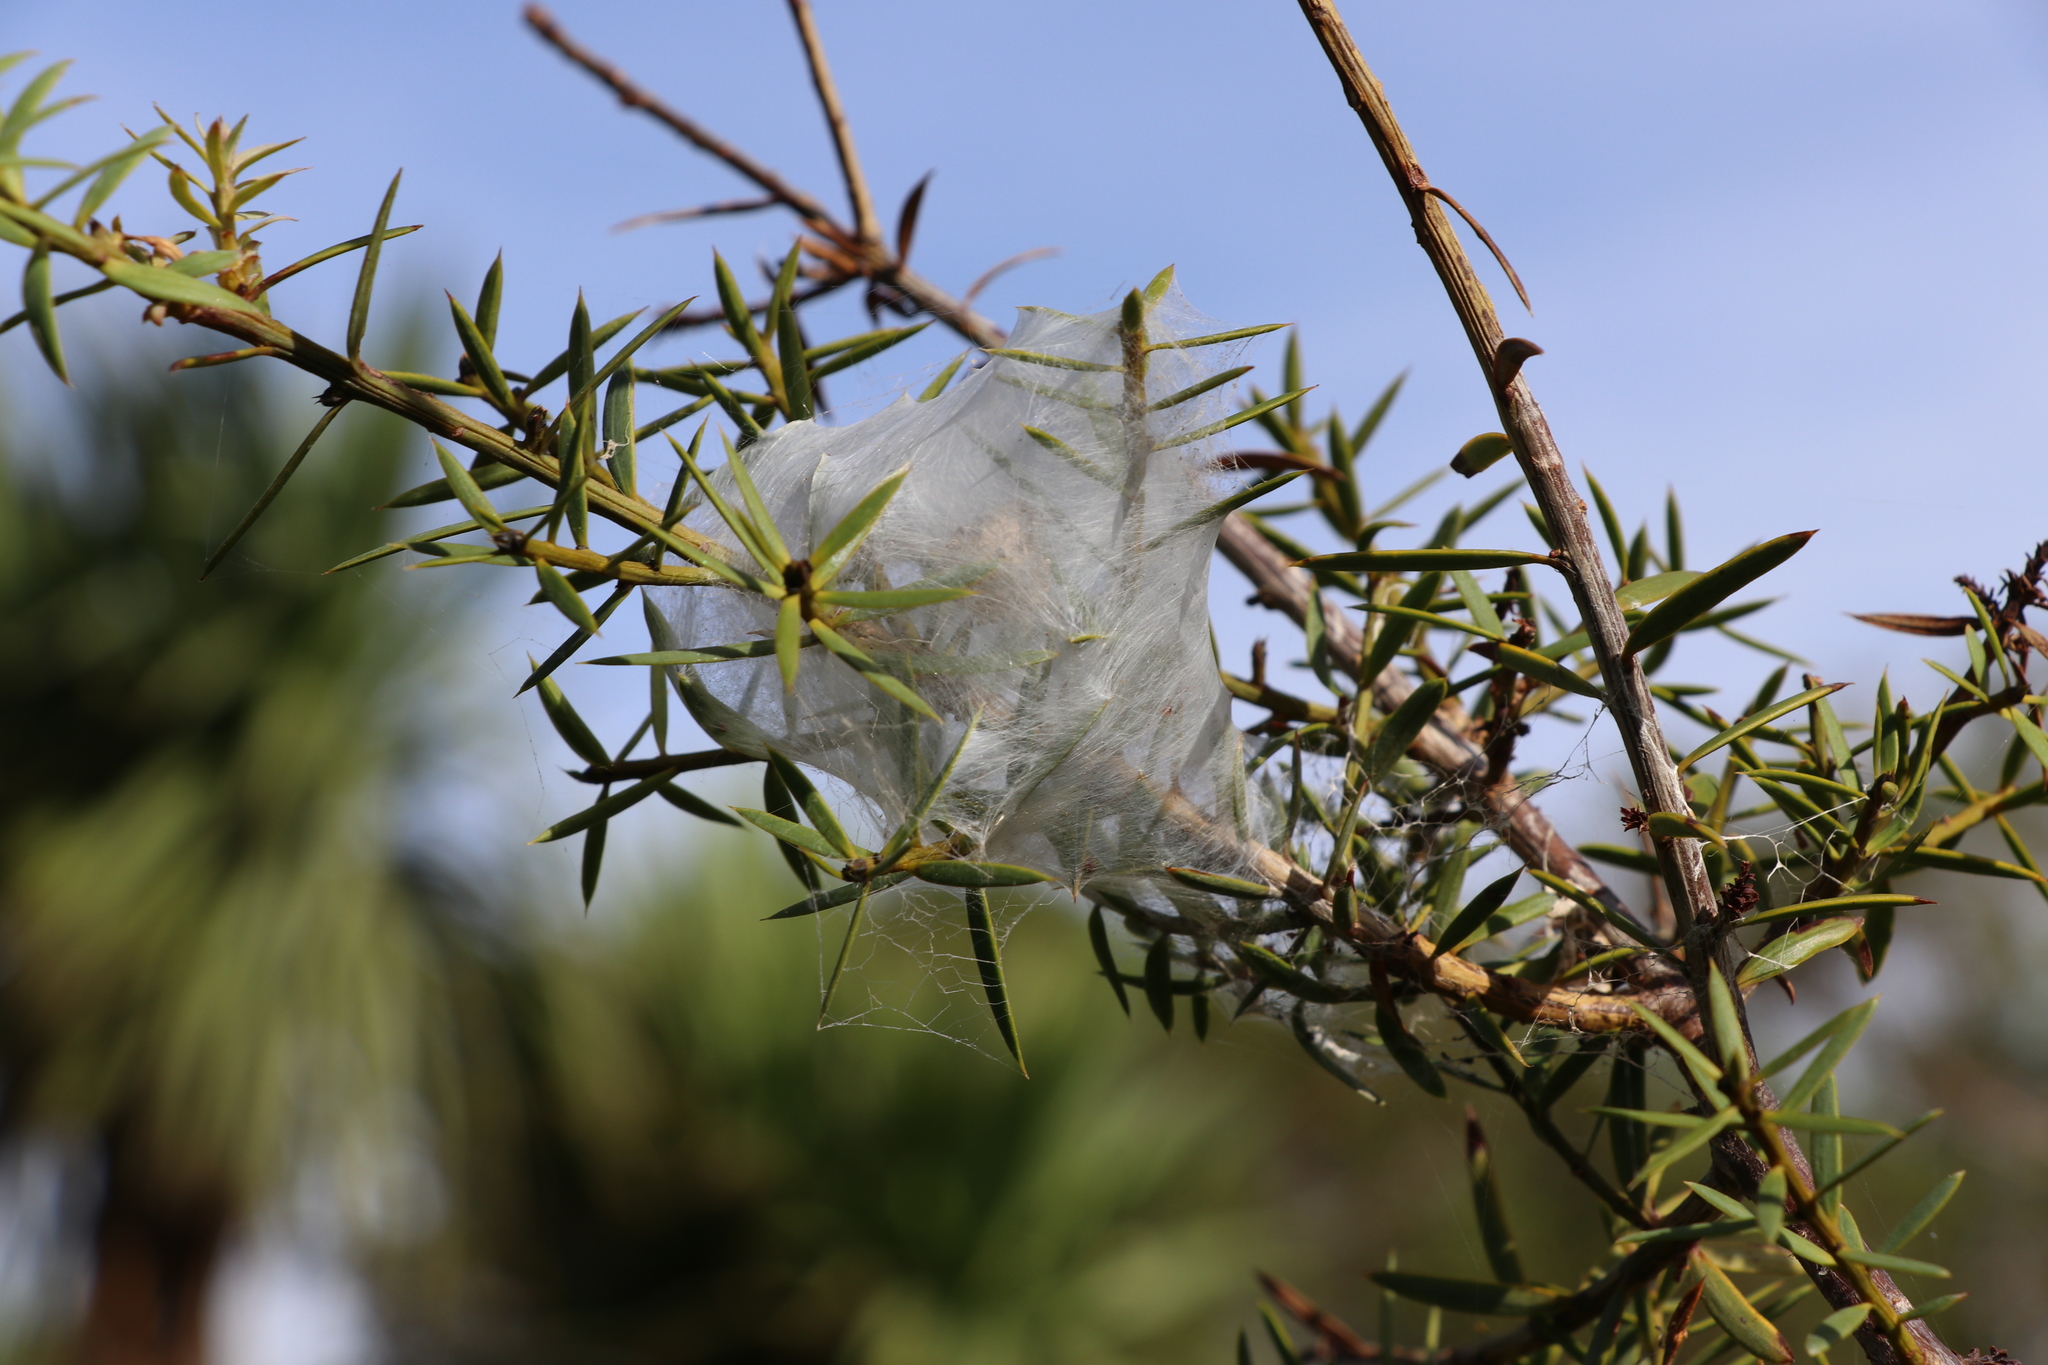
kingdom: Animalia
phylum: Arthropoda
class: Arachnida
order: Araneae
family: Pisauridae
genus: Dolomedes
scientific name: Dolomedes minor
